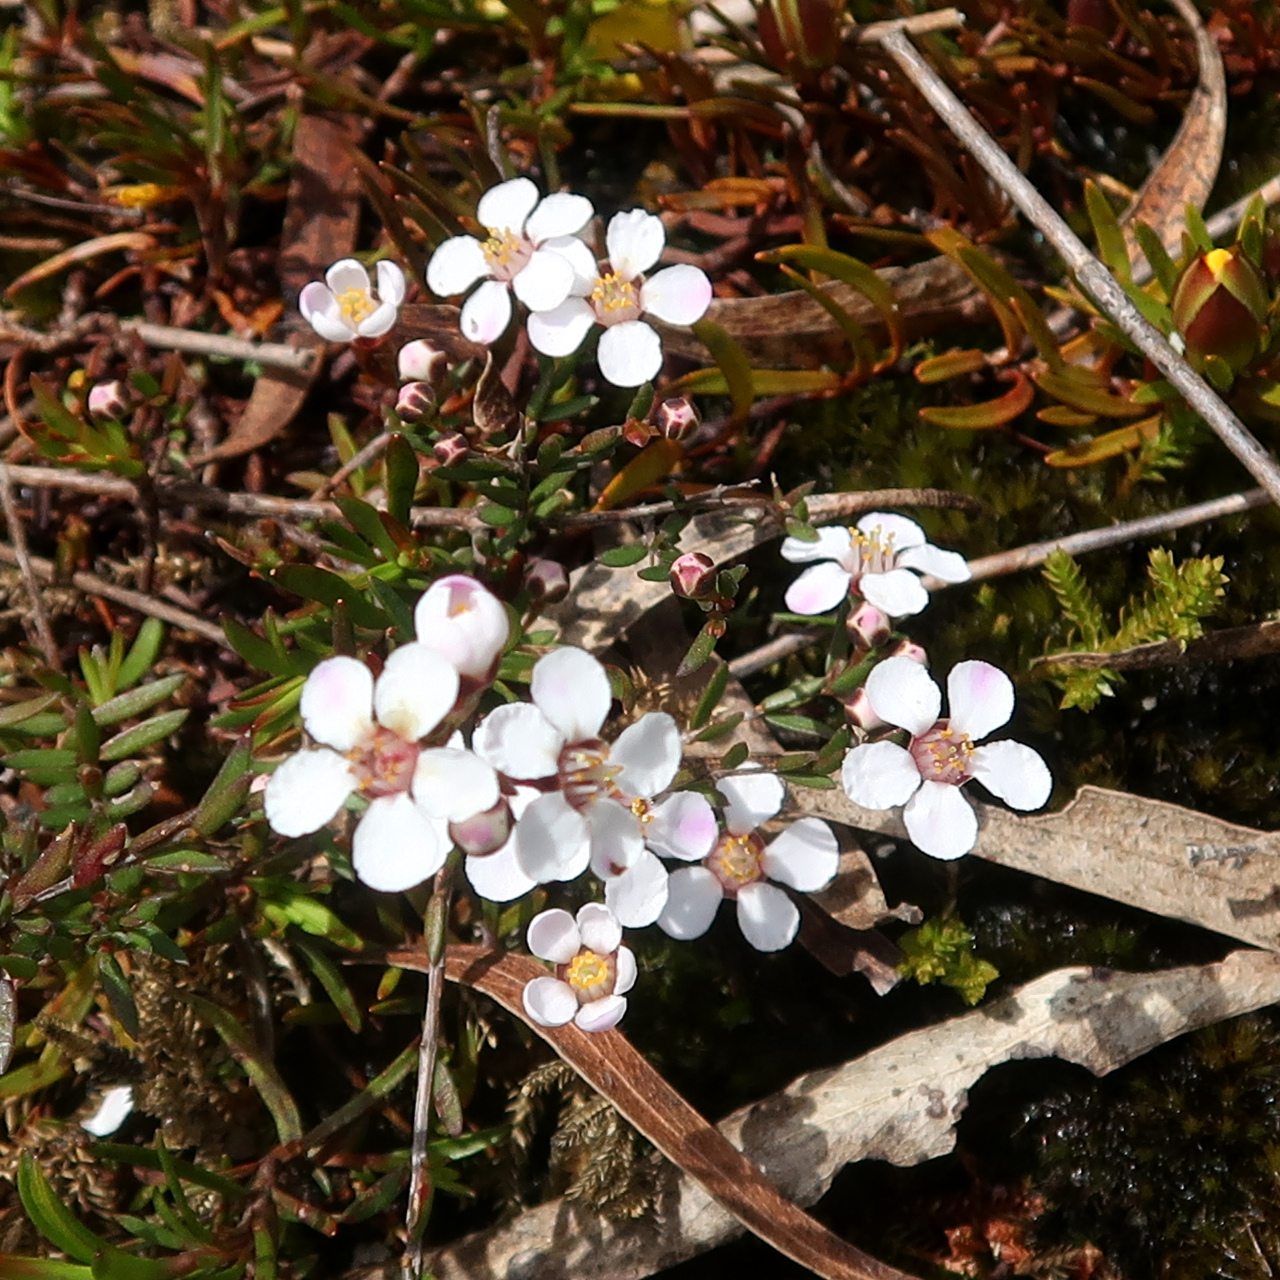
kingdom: Plantae
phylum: Tracheophyta
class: Magnoliopsida
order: Myrtales
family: Myrtaceae
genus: Euryomyrtus
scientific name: Euryomyrtus ramosissima
